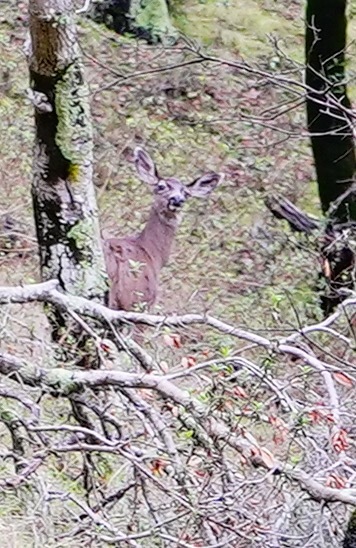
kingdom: Animalia
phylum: Chordata
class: Mammalia
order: Artiodactyla
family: Cervidae
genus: Odocoileus
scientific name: Odocoileus hemionus
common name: Mule deer
